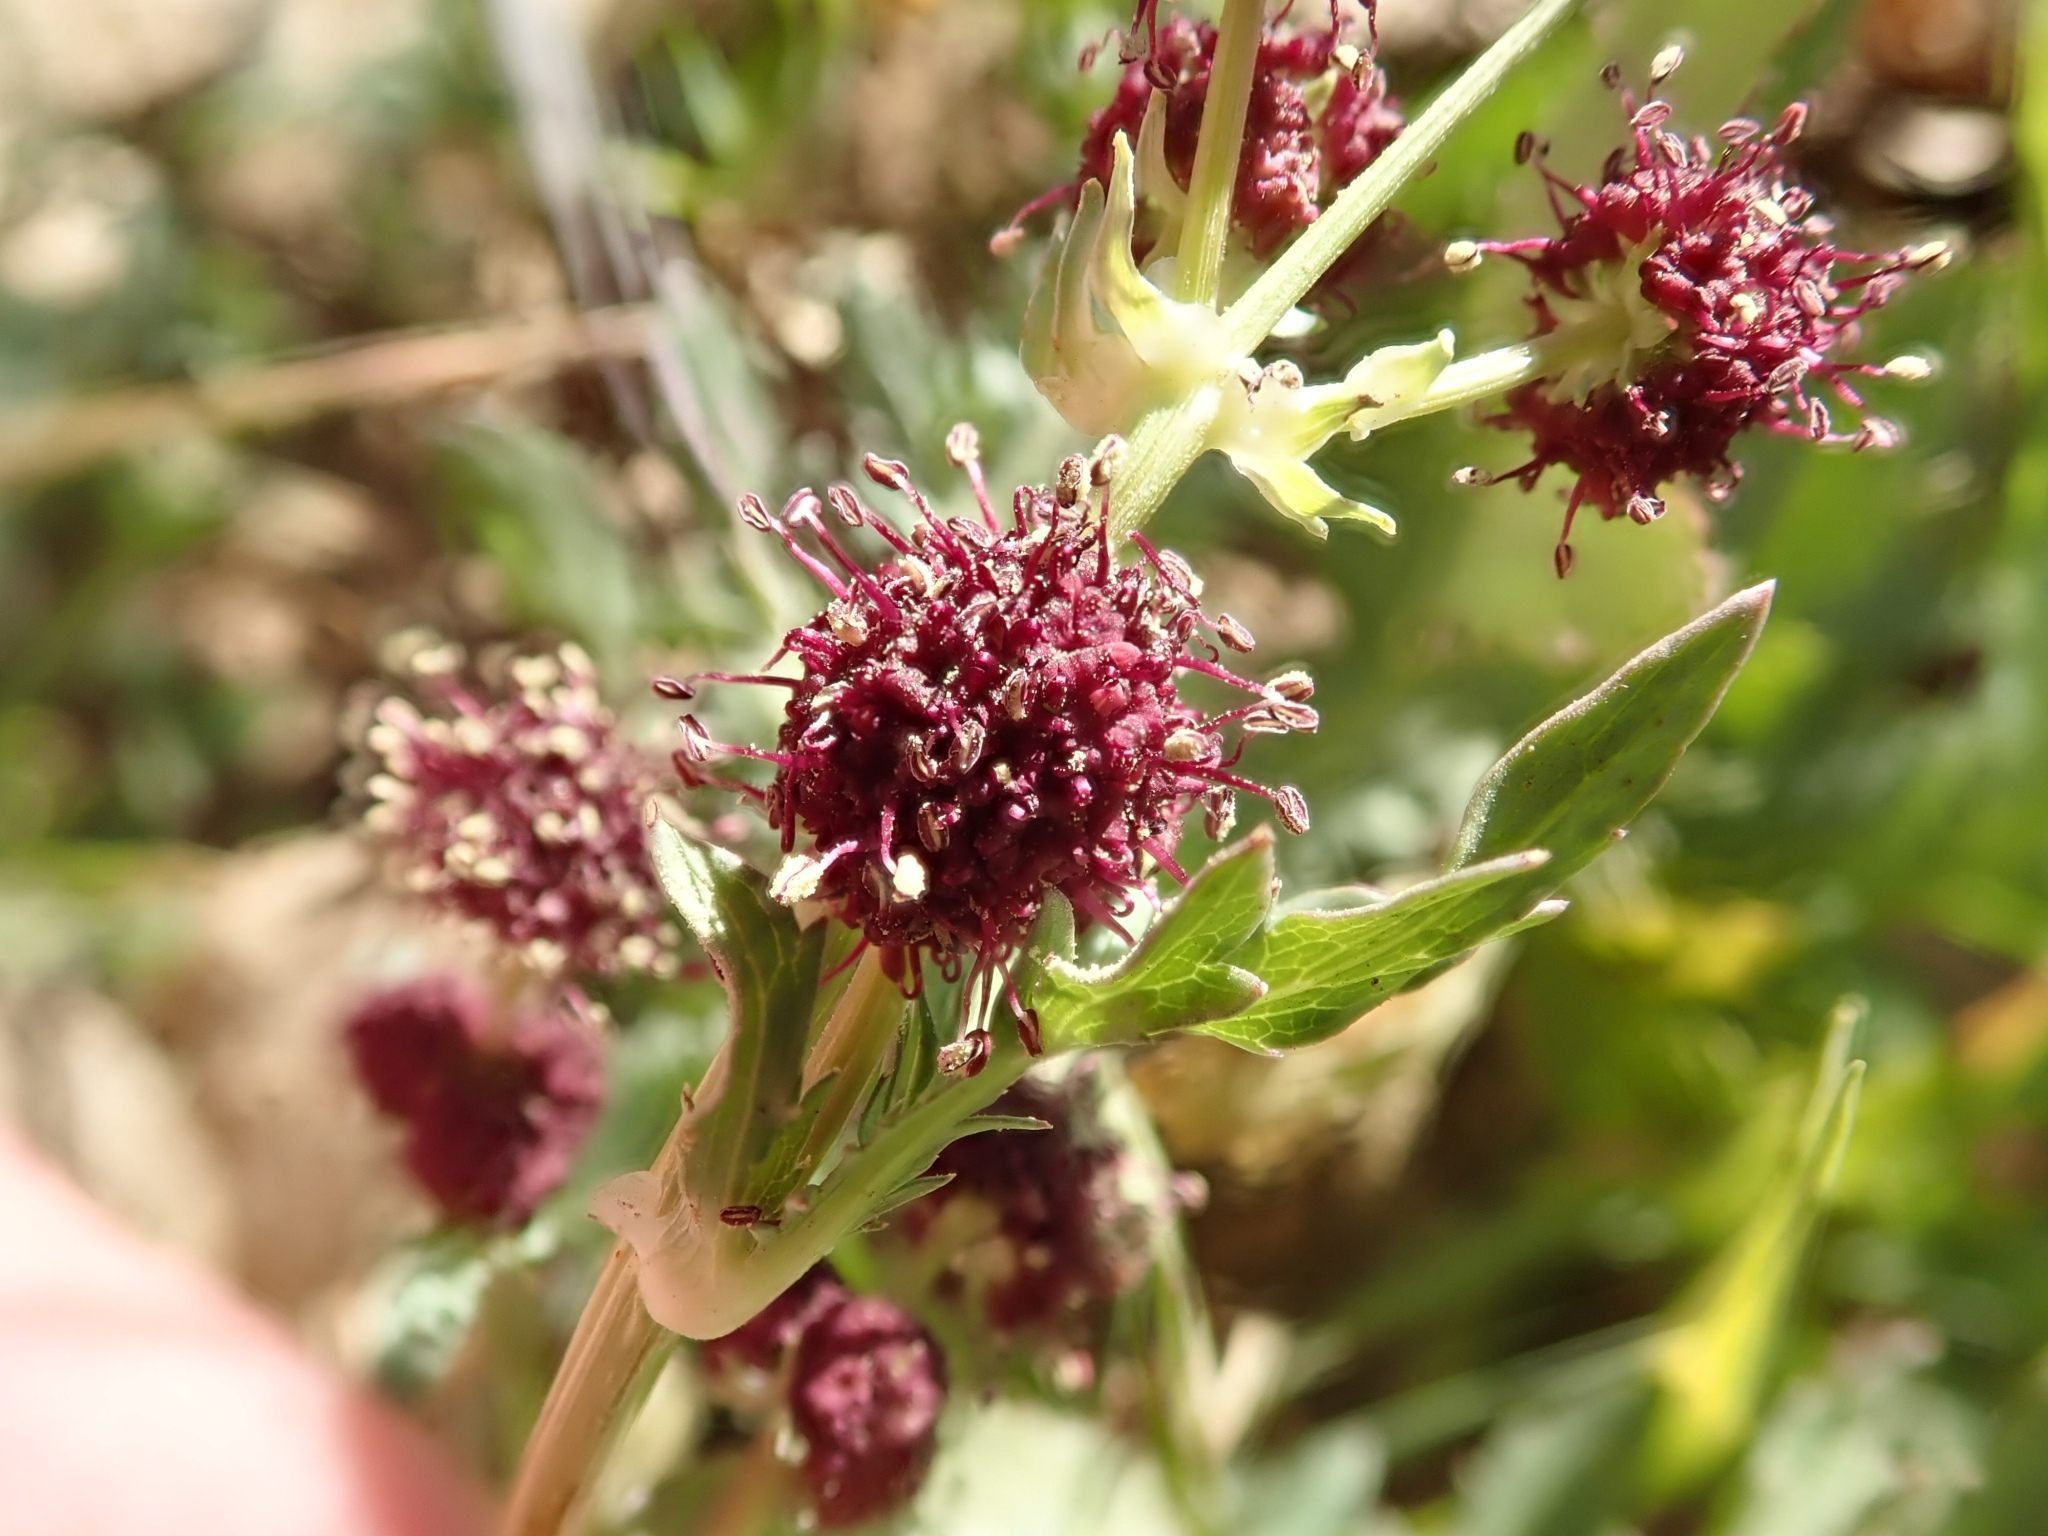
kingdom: Plantae
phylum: Tracheophyta
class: Magnoliopsida
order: Apiales
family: Apiaceae
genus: Sanicula
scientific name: Sanicula bipinnatifida
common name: Shoe-buttons
